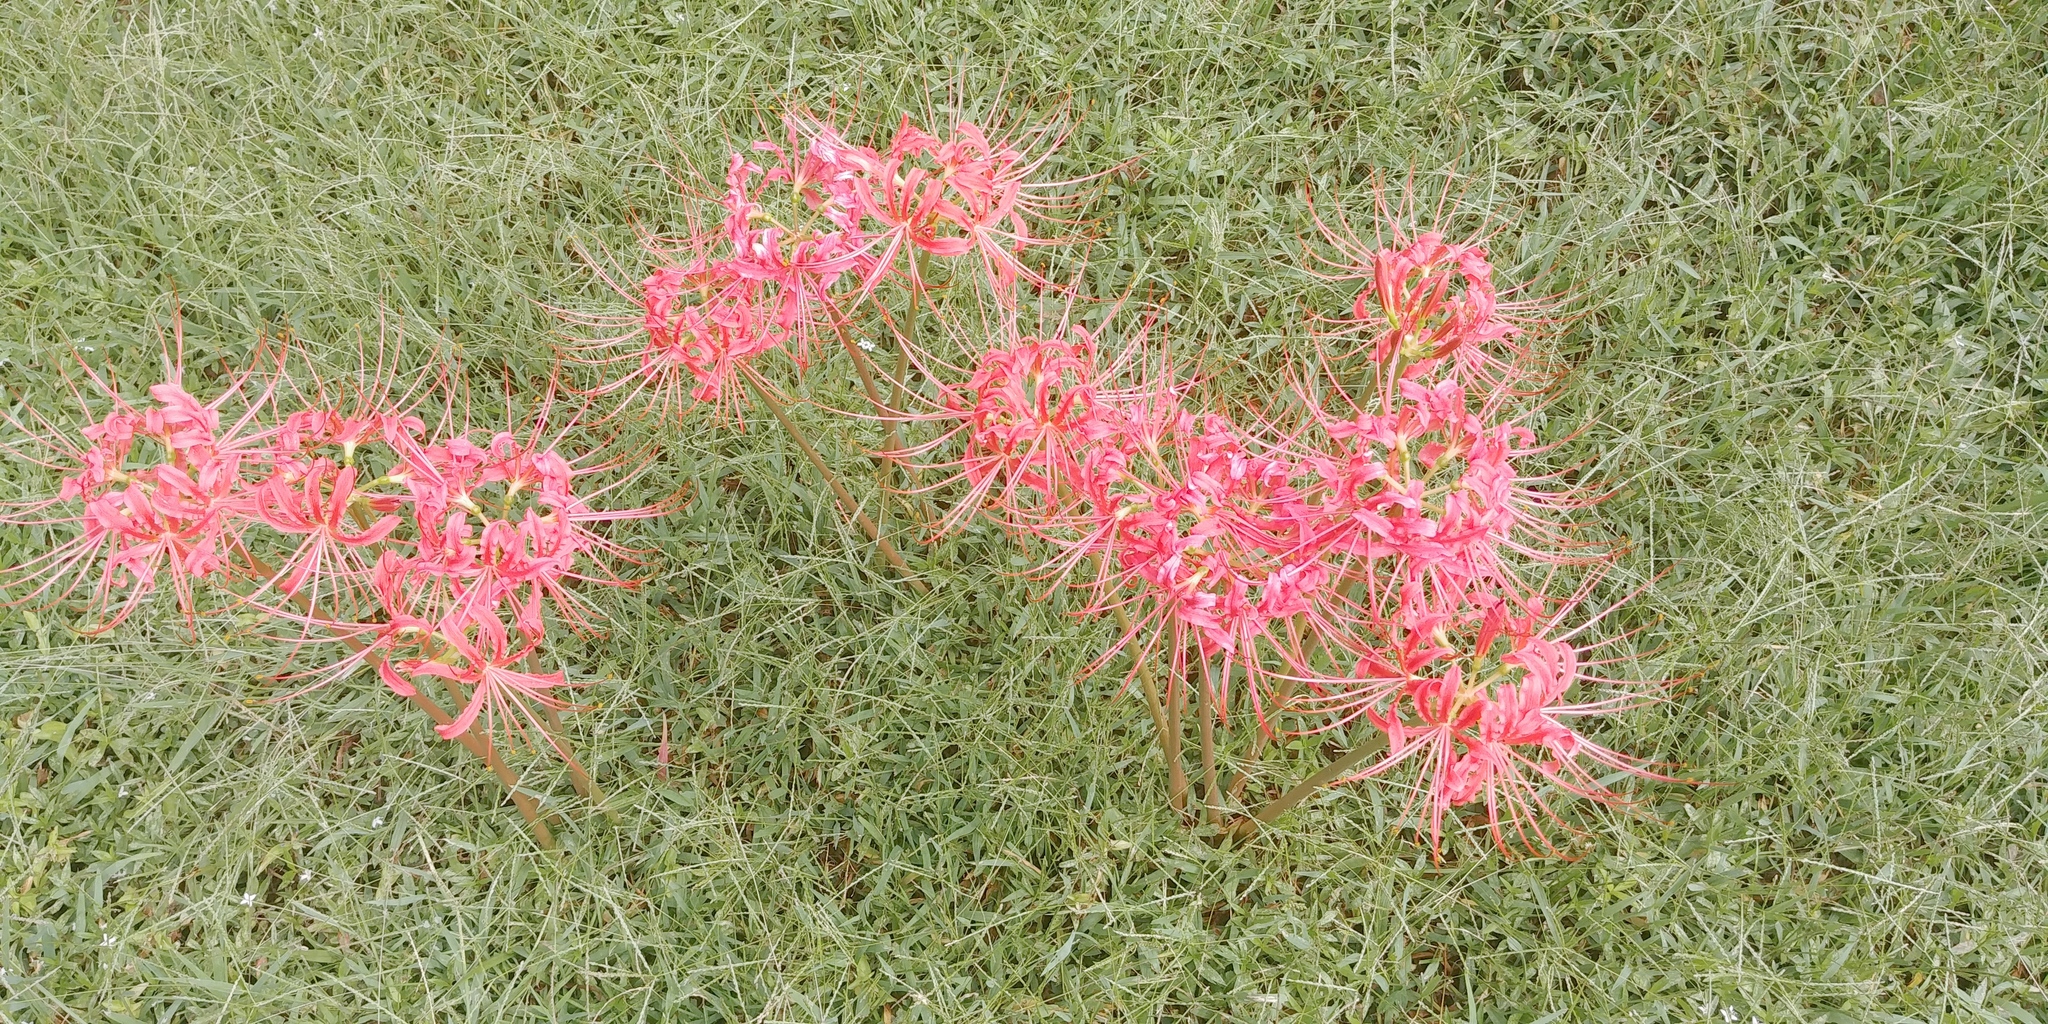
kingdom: Plantae
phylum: Tracheophyta
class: Liliopsida
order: Asparagales
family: Amaryllidaceae
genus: Lycoris
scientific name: Lycoris radiata
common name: Red spider lily
